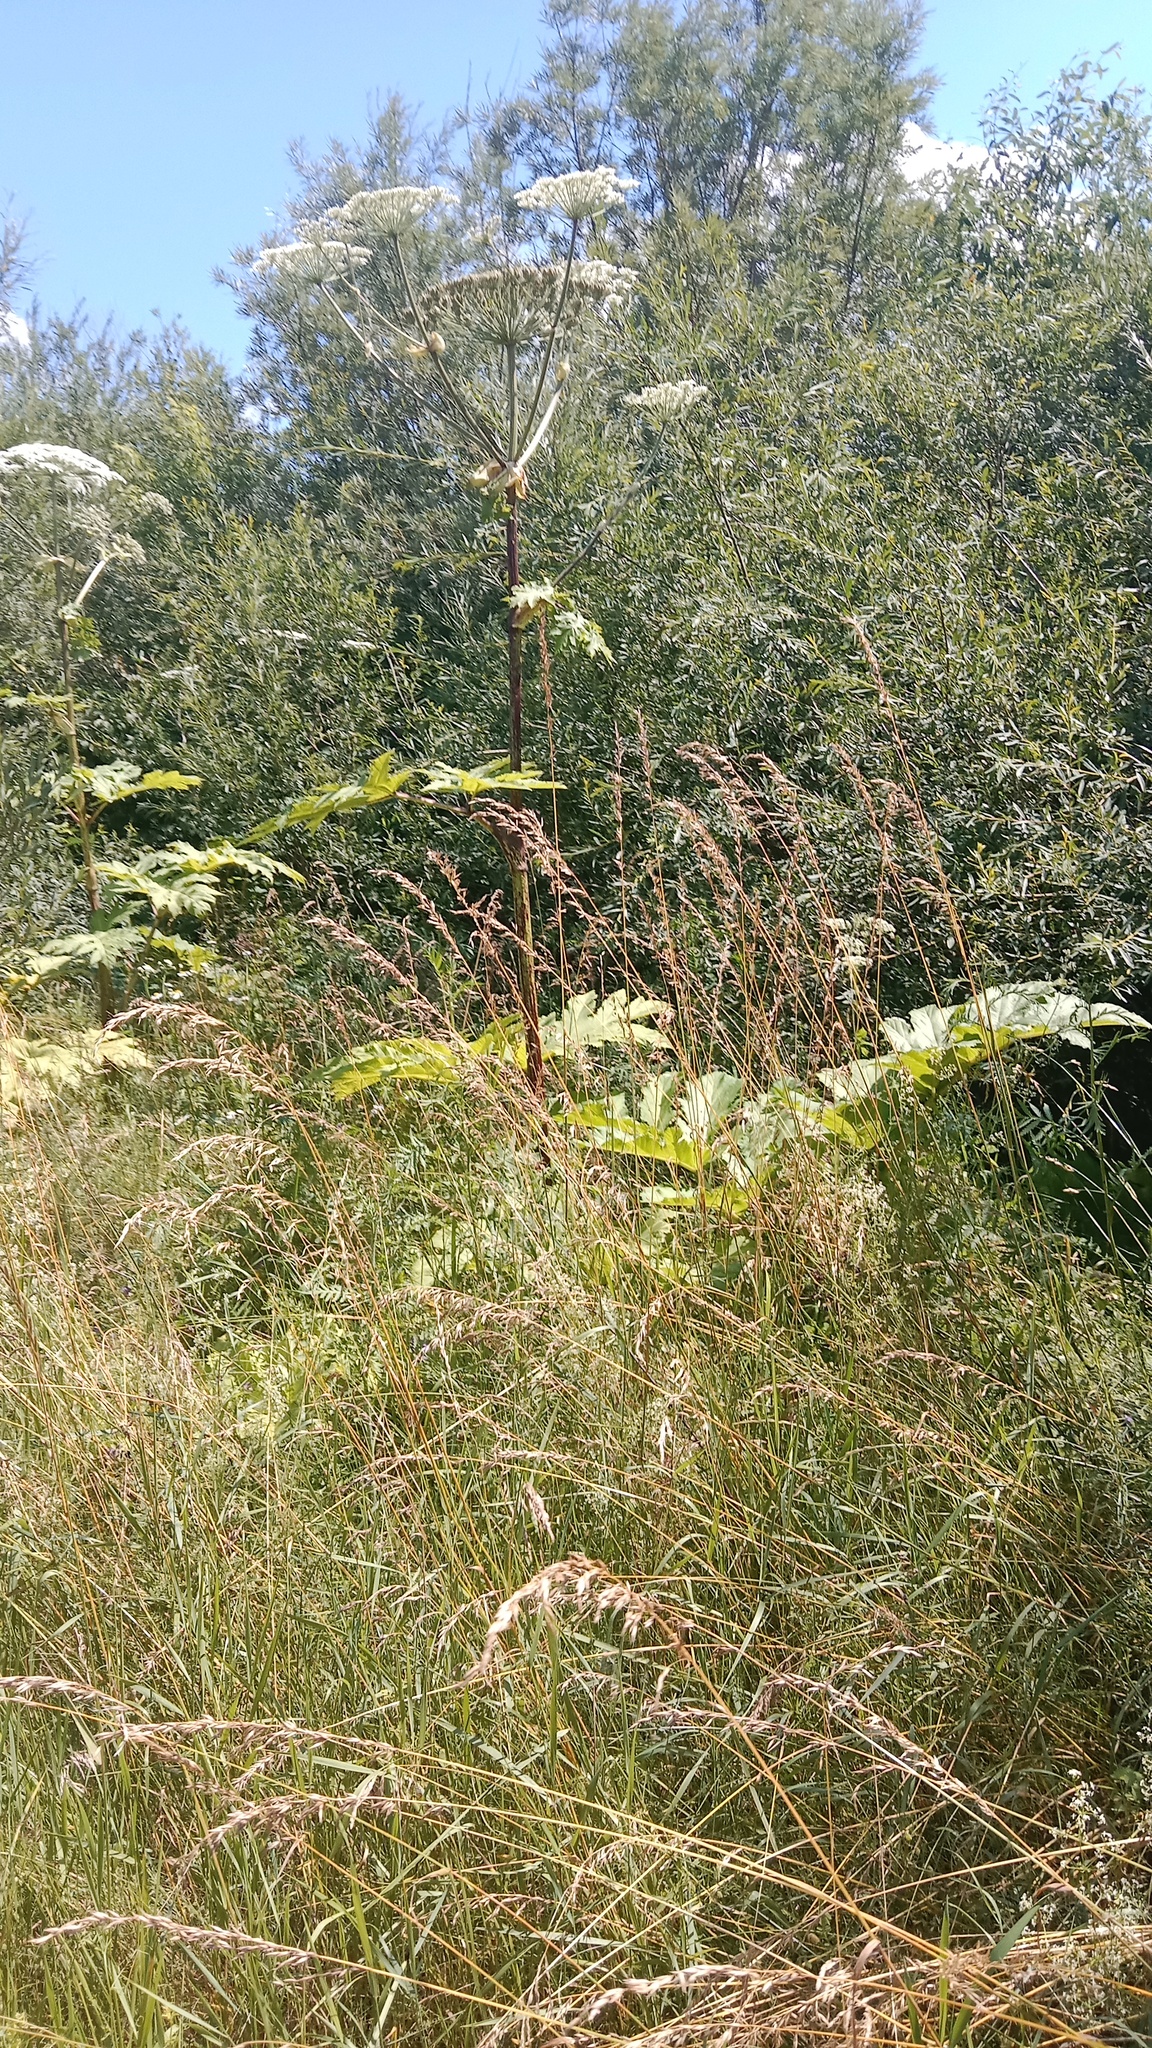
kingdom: Plantae
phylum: Tracheophyta
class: Magnoliopsida
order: Apiales
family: Apiaceae
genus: Heracleum
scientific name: Heracleum sosnowskyi
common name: Sosnowsky's hogweed
